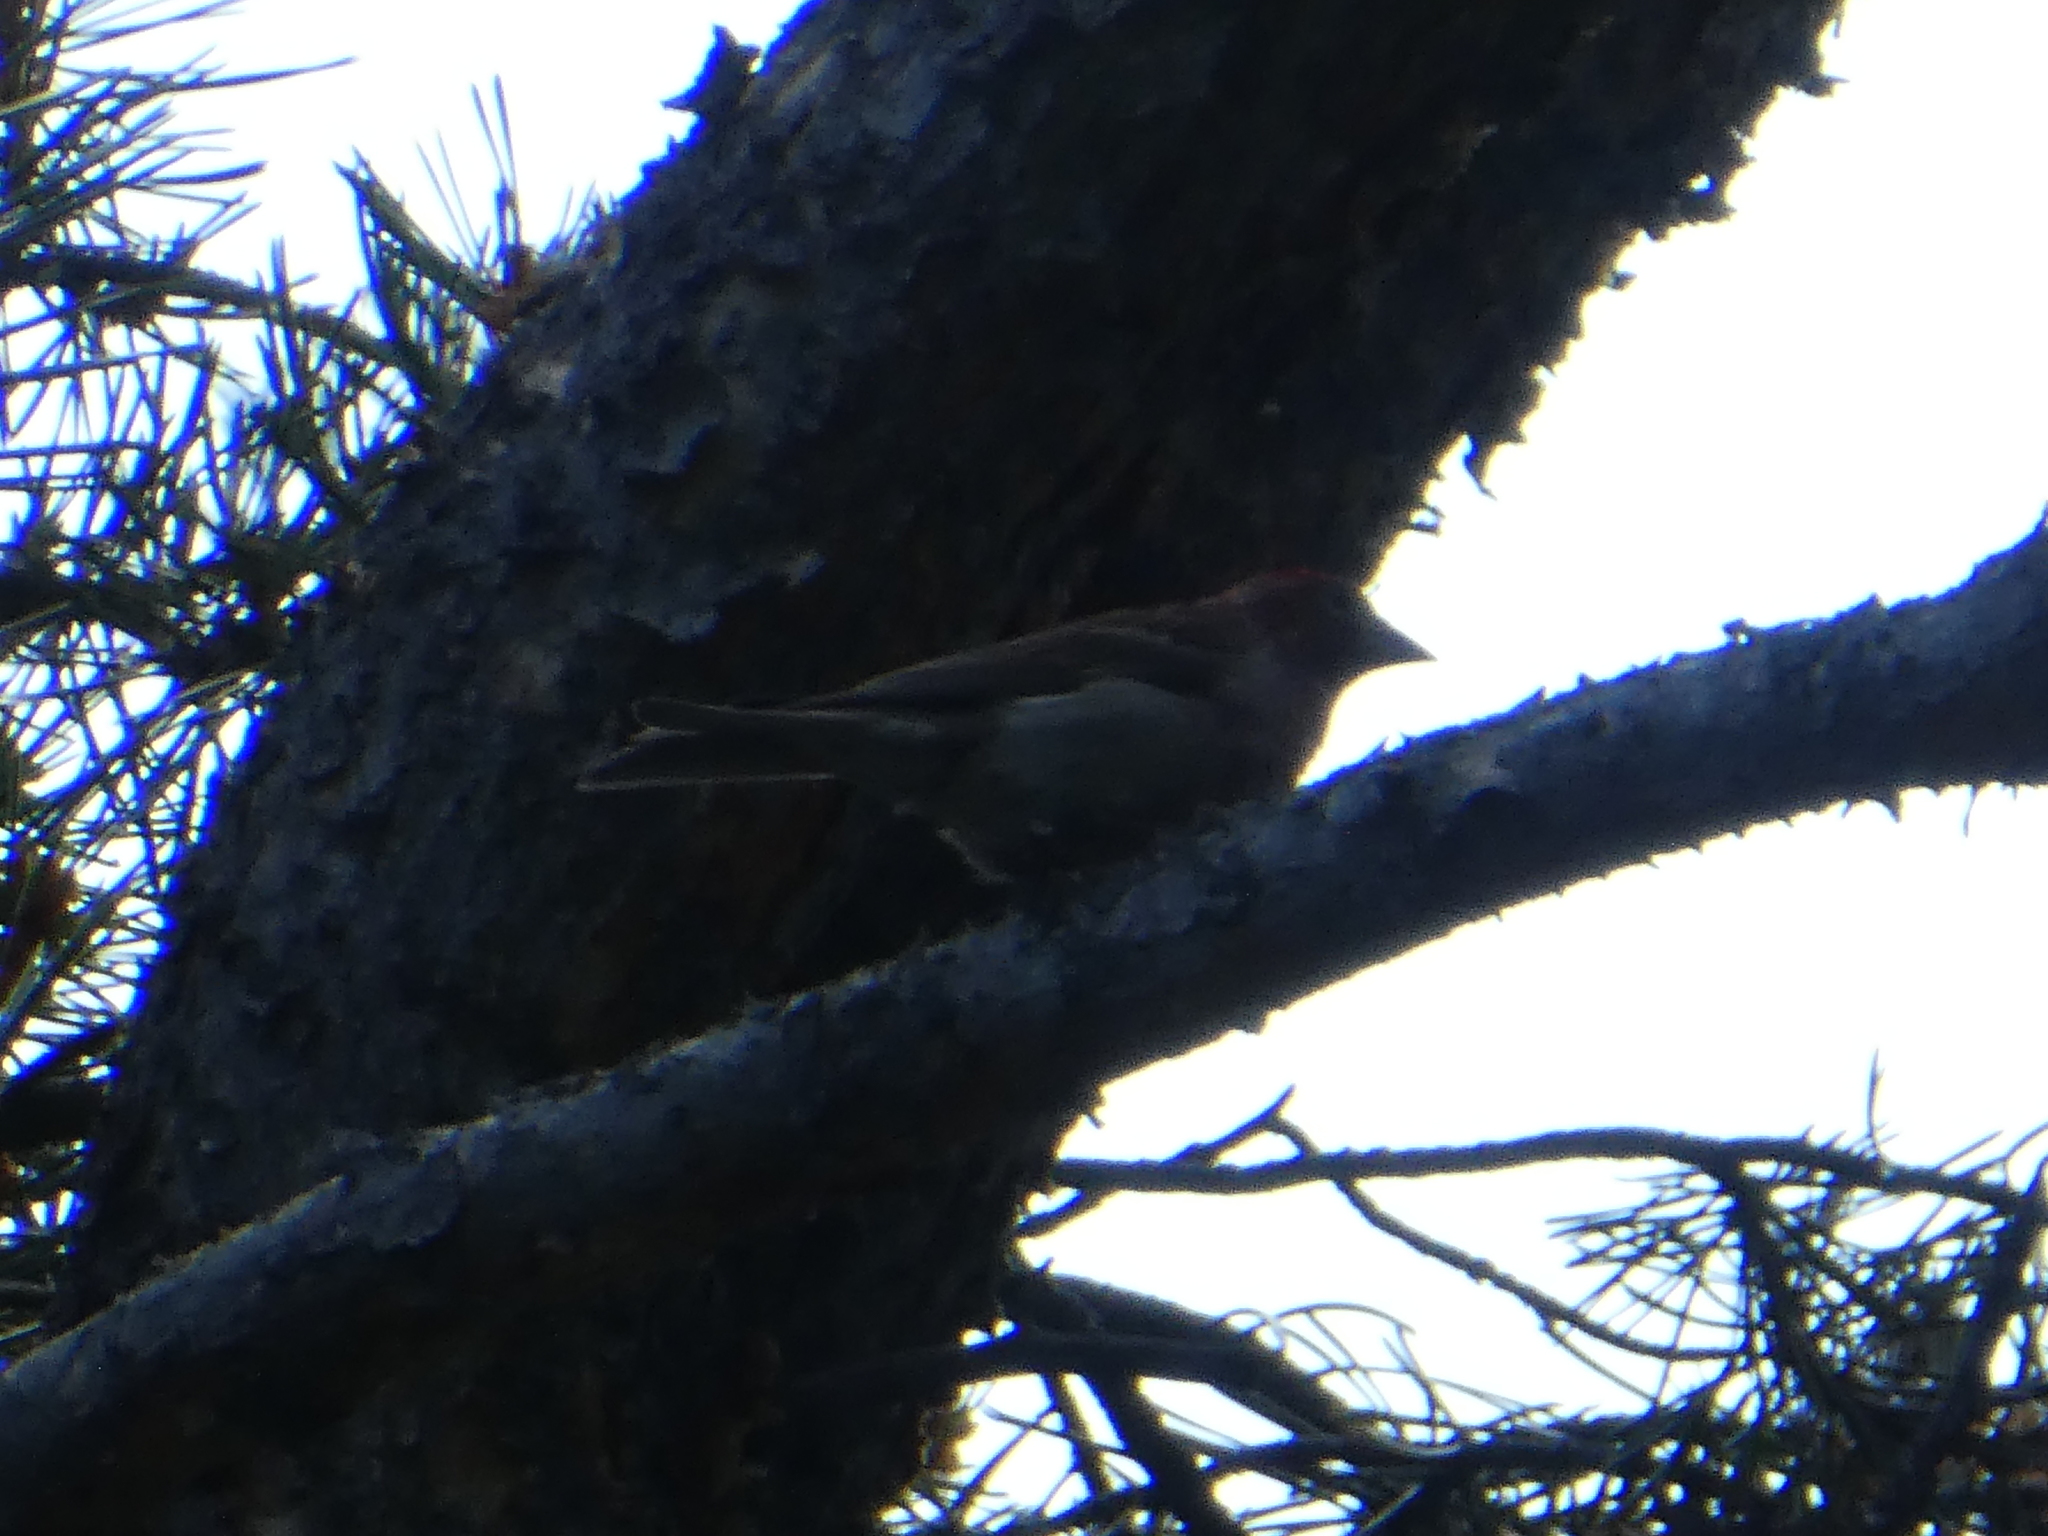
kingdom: Animalia
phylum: Chordata
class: Aves
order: Passeriformes
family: Fringillidae
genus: Haemorhous
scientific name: Haemorhous cassinii
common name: Cassin's finch
